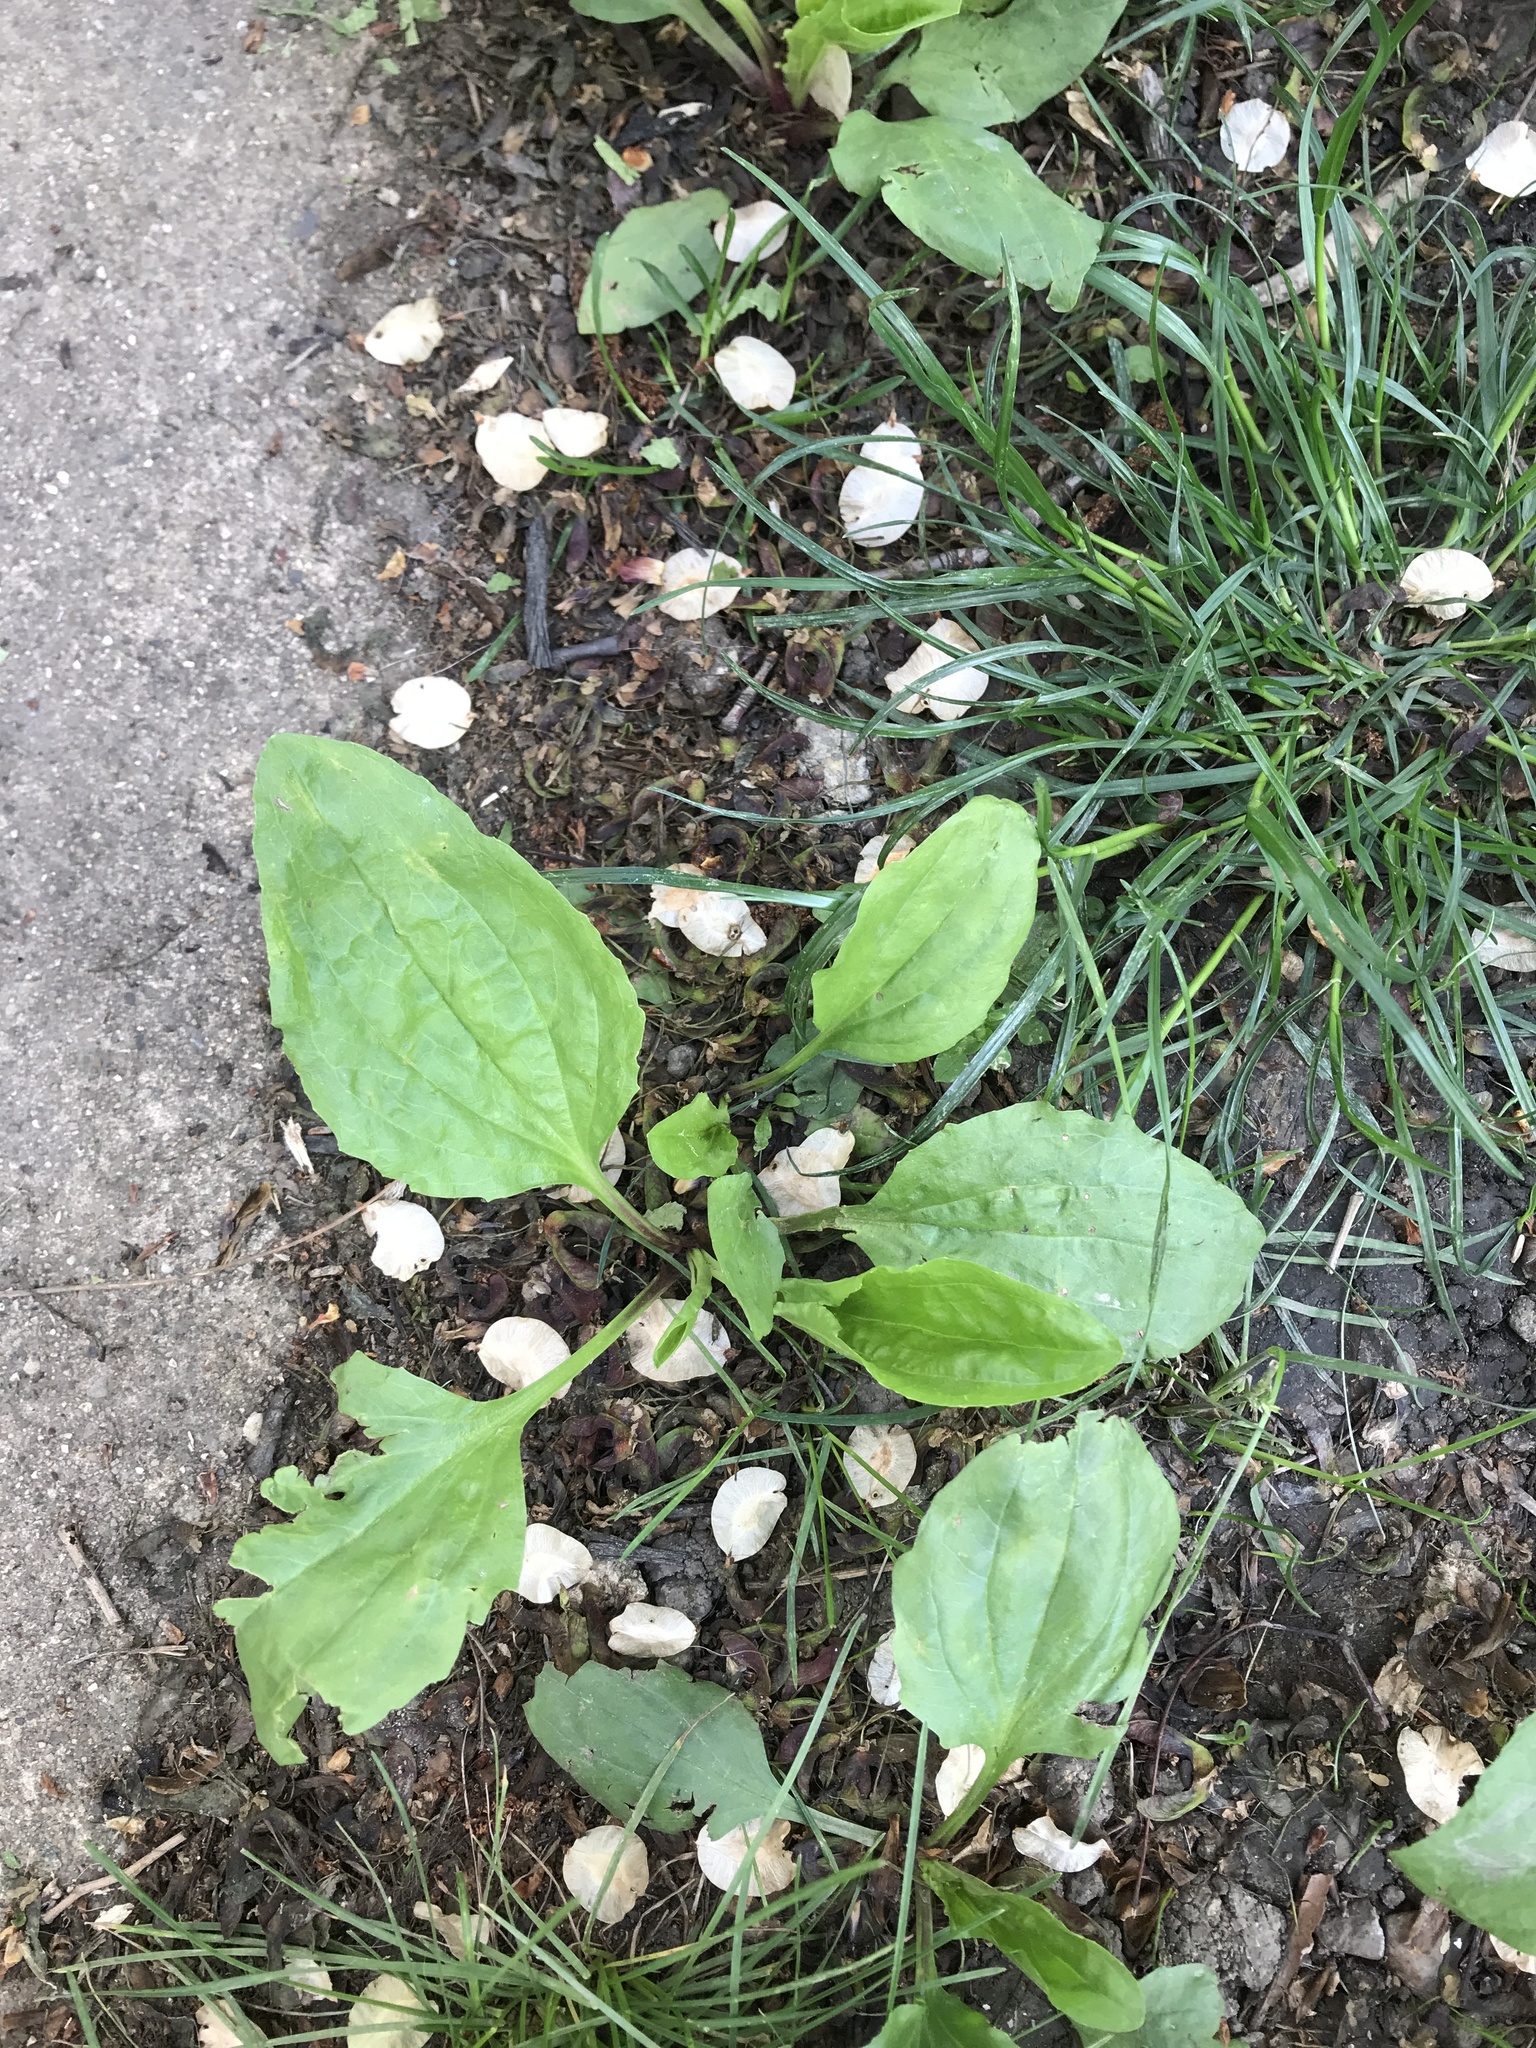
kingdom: Plantae
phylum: Tracheophyta
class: Magnoliopsida
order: Lamiales
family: Plantaginaceae
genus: Plantago
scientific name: Plantago rugelii
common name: American plantain
